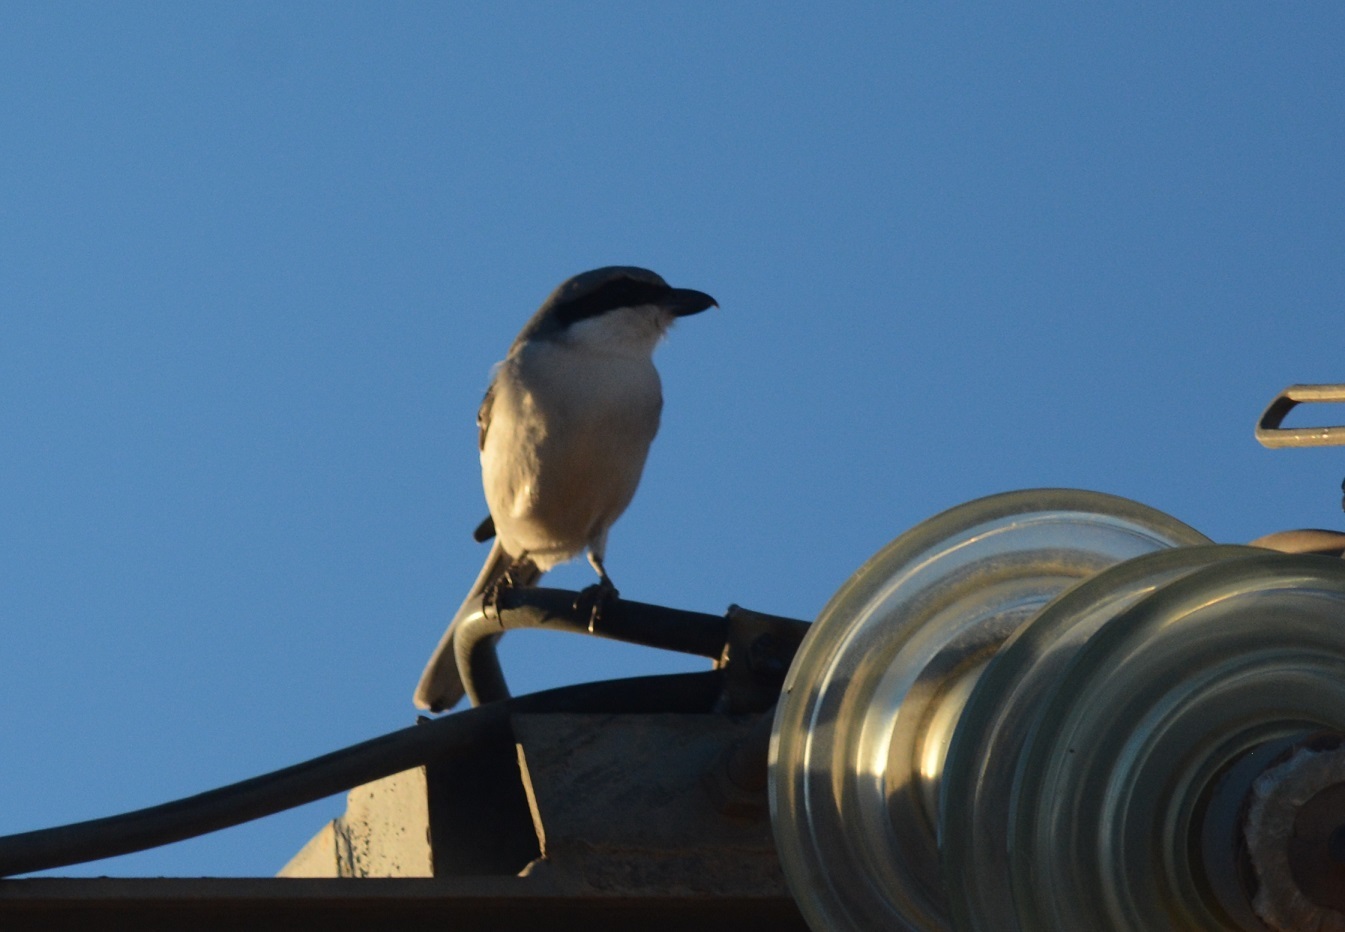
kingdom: Animalia
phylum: Chordata
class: Aves
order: Passeriformes
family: Laniidae
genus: Lanius
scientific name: Lanius excubitor
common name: Great grey shrike
